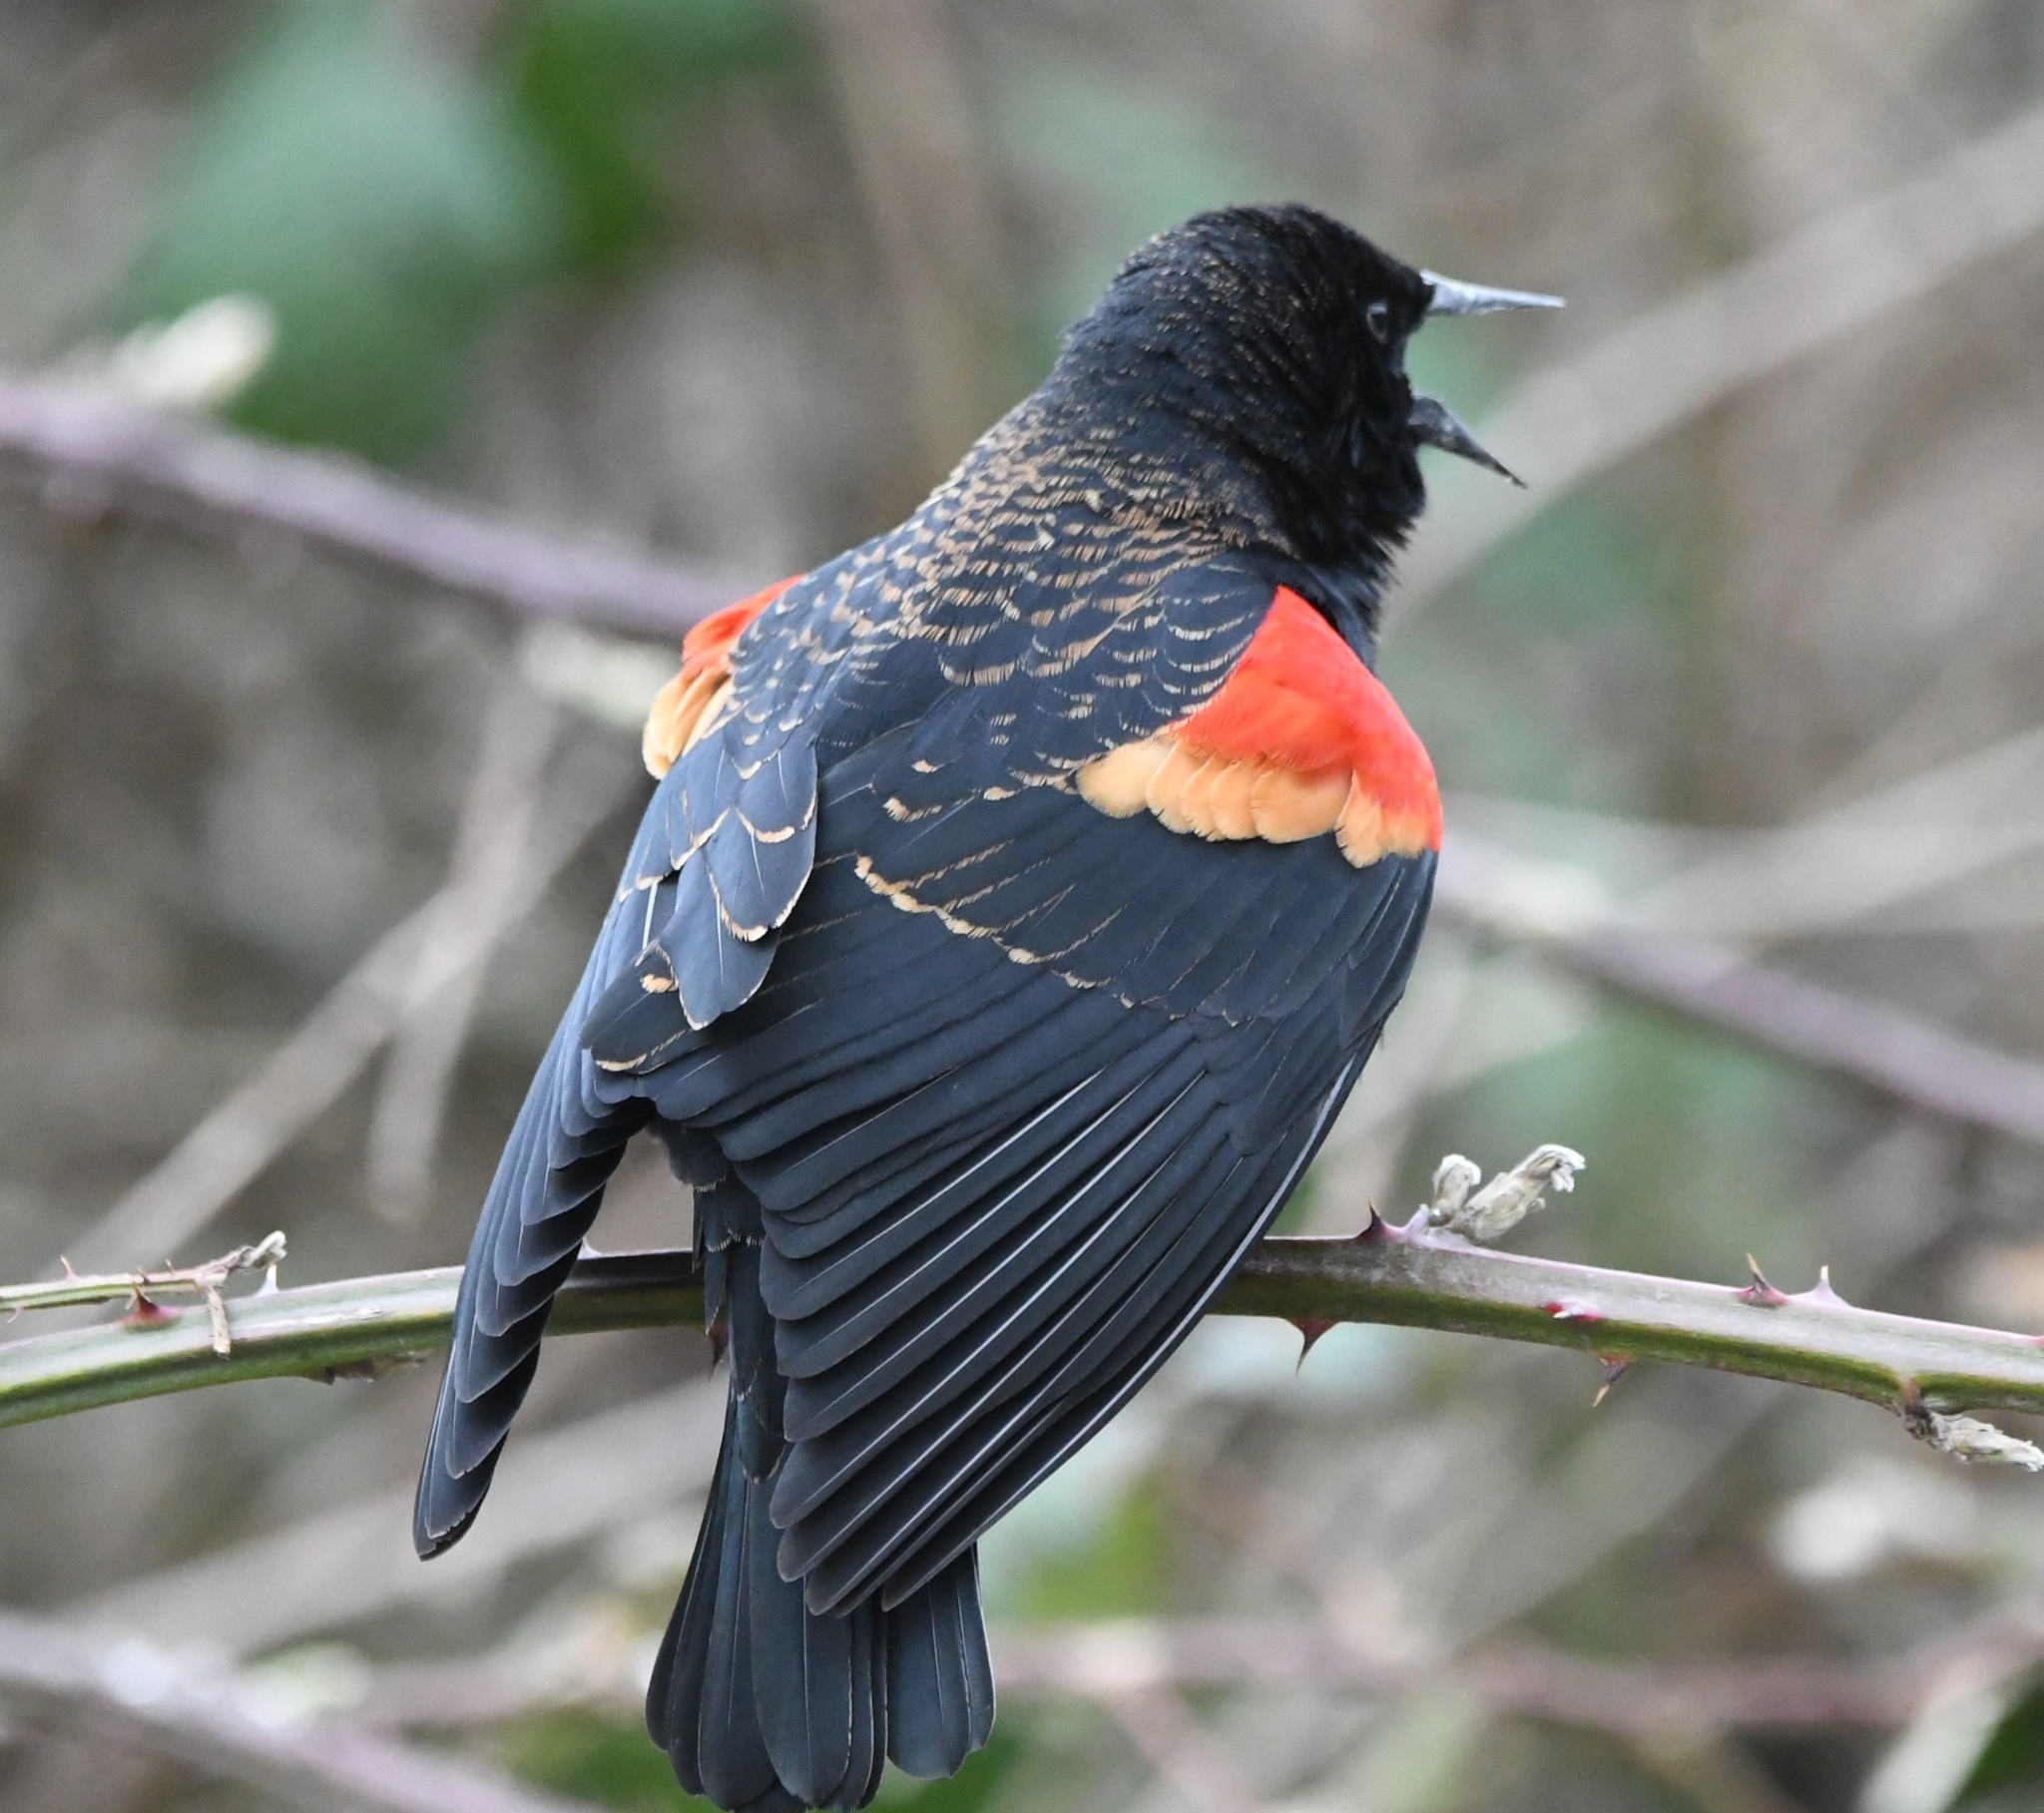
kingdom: Animalia
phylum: Chordata
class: Aves
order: Passeriformes
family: Icteridae
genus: Agelaius
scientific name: Agelaius phoeniceus
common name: Red-winged blackbird
